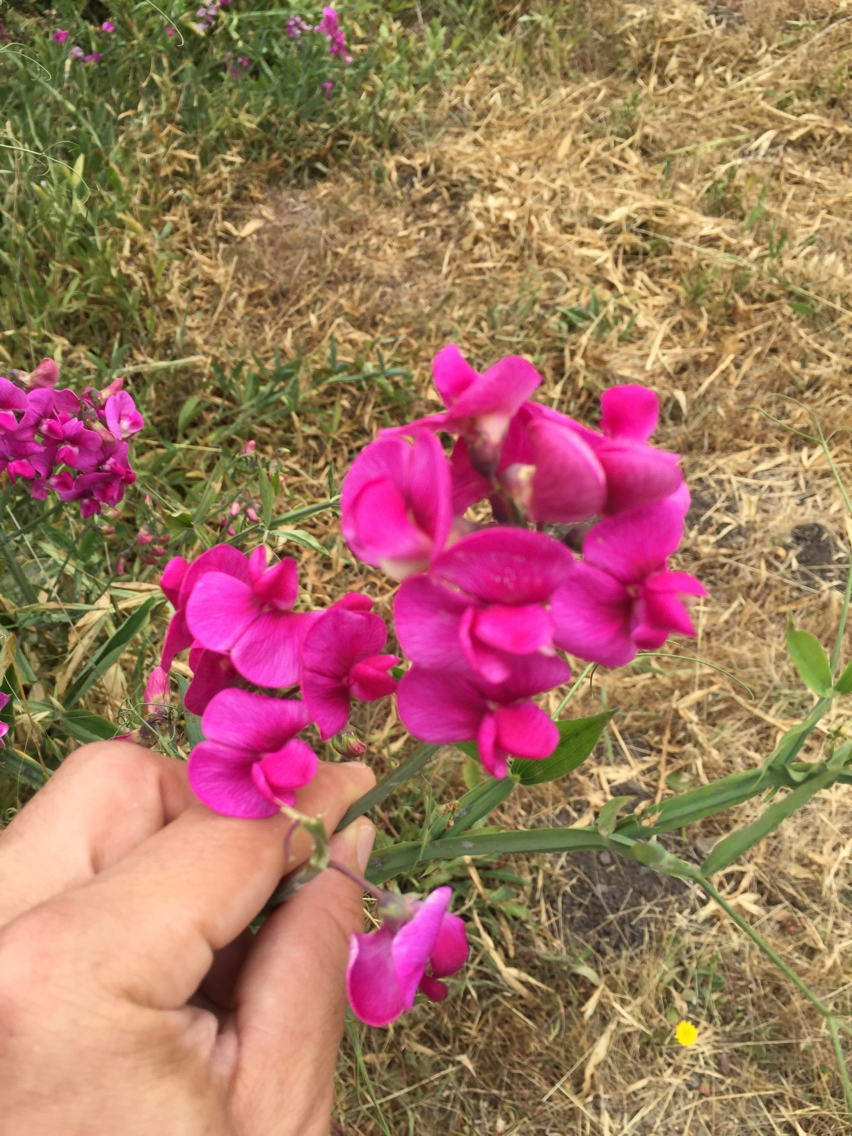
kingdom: Plantae
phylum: Tracheophyta
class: Magnoliopsida
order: Fabales
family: Fabaceae
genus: Lathyrus
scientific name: Lathyrus latifolius
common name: Perennial pea
